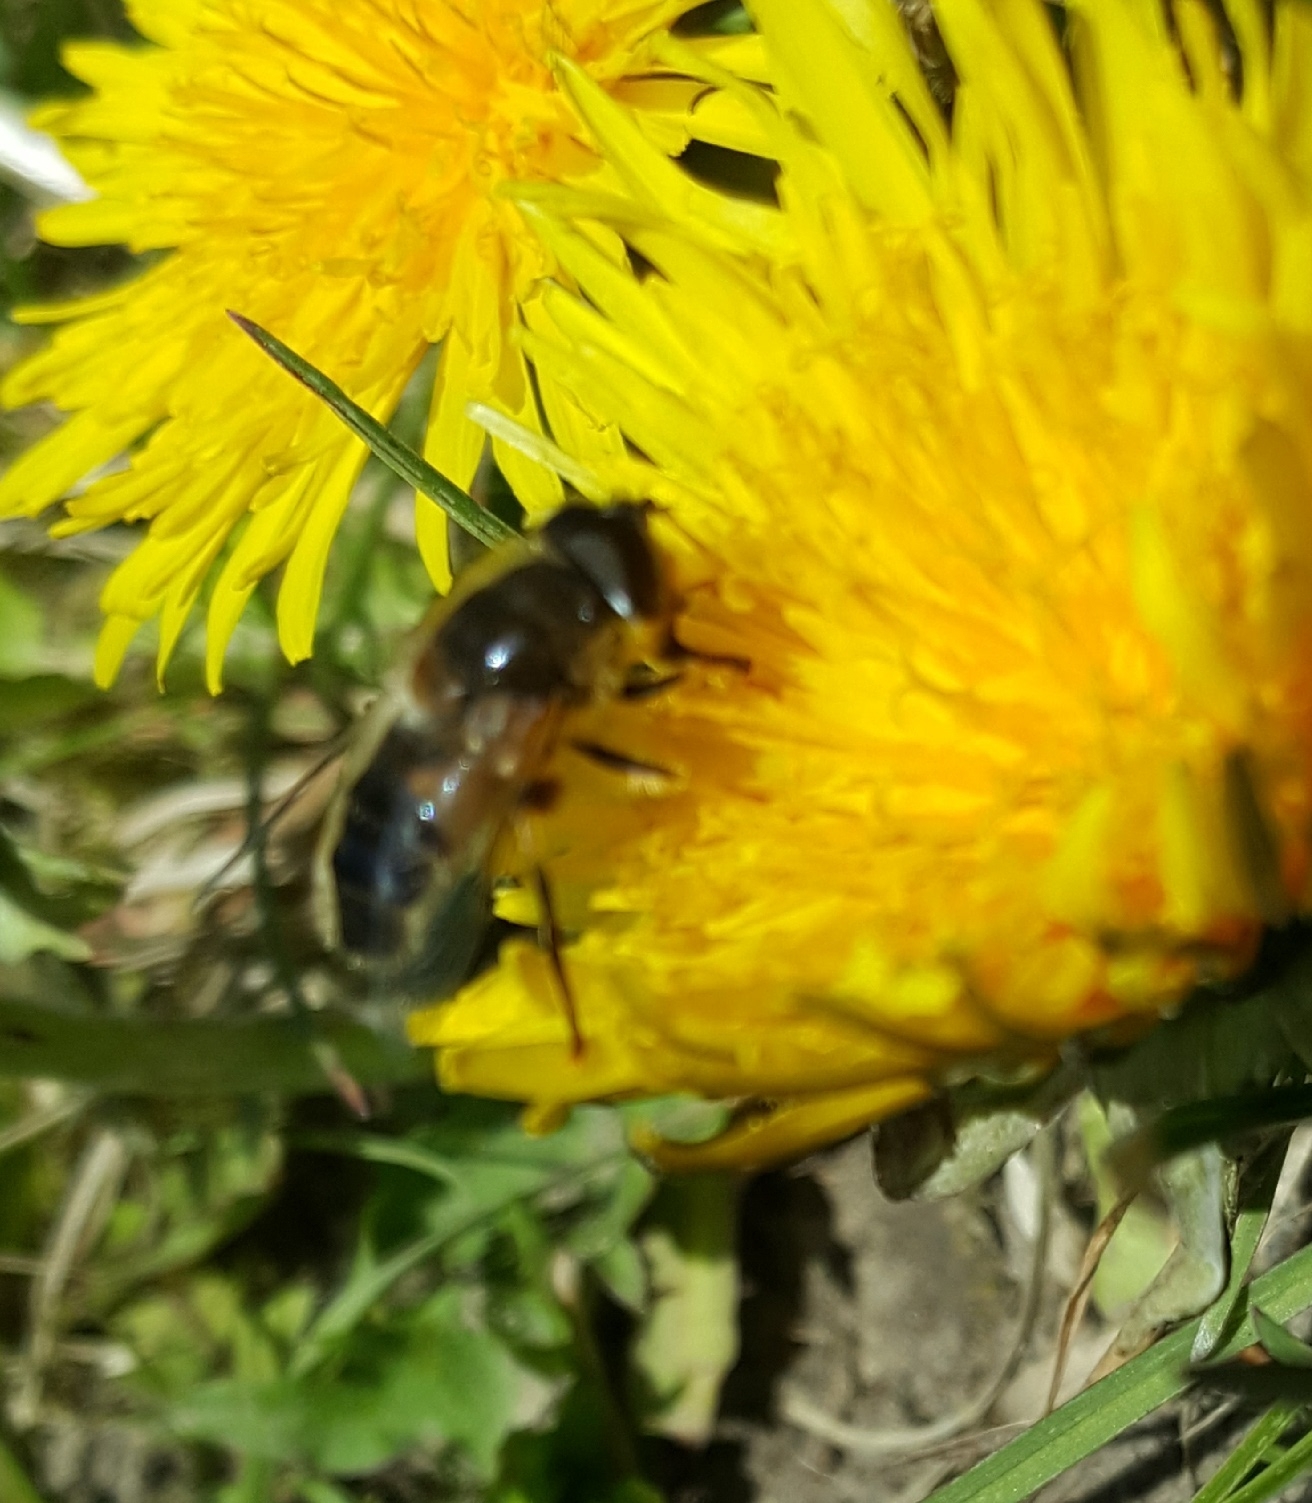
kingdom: Animalia
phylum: Arthropoda
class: Insecta
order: Diptera
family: Syrphidae
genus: Eristalis
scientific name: Eristalis pertinax
